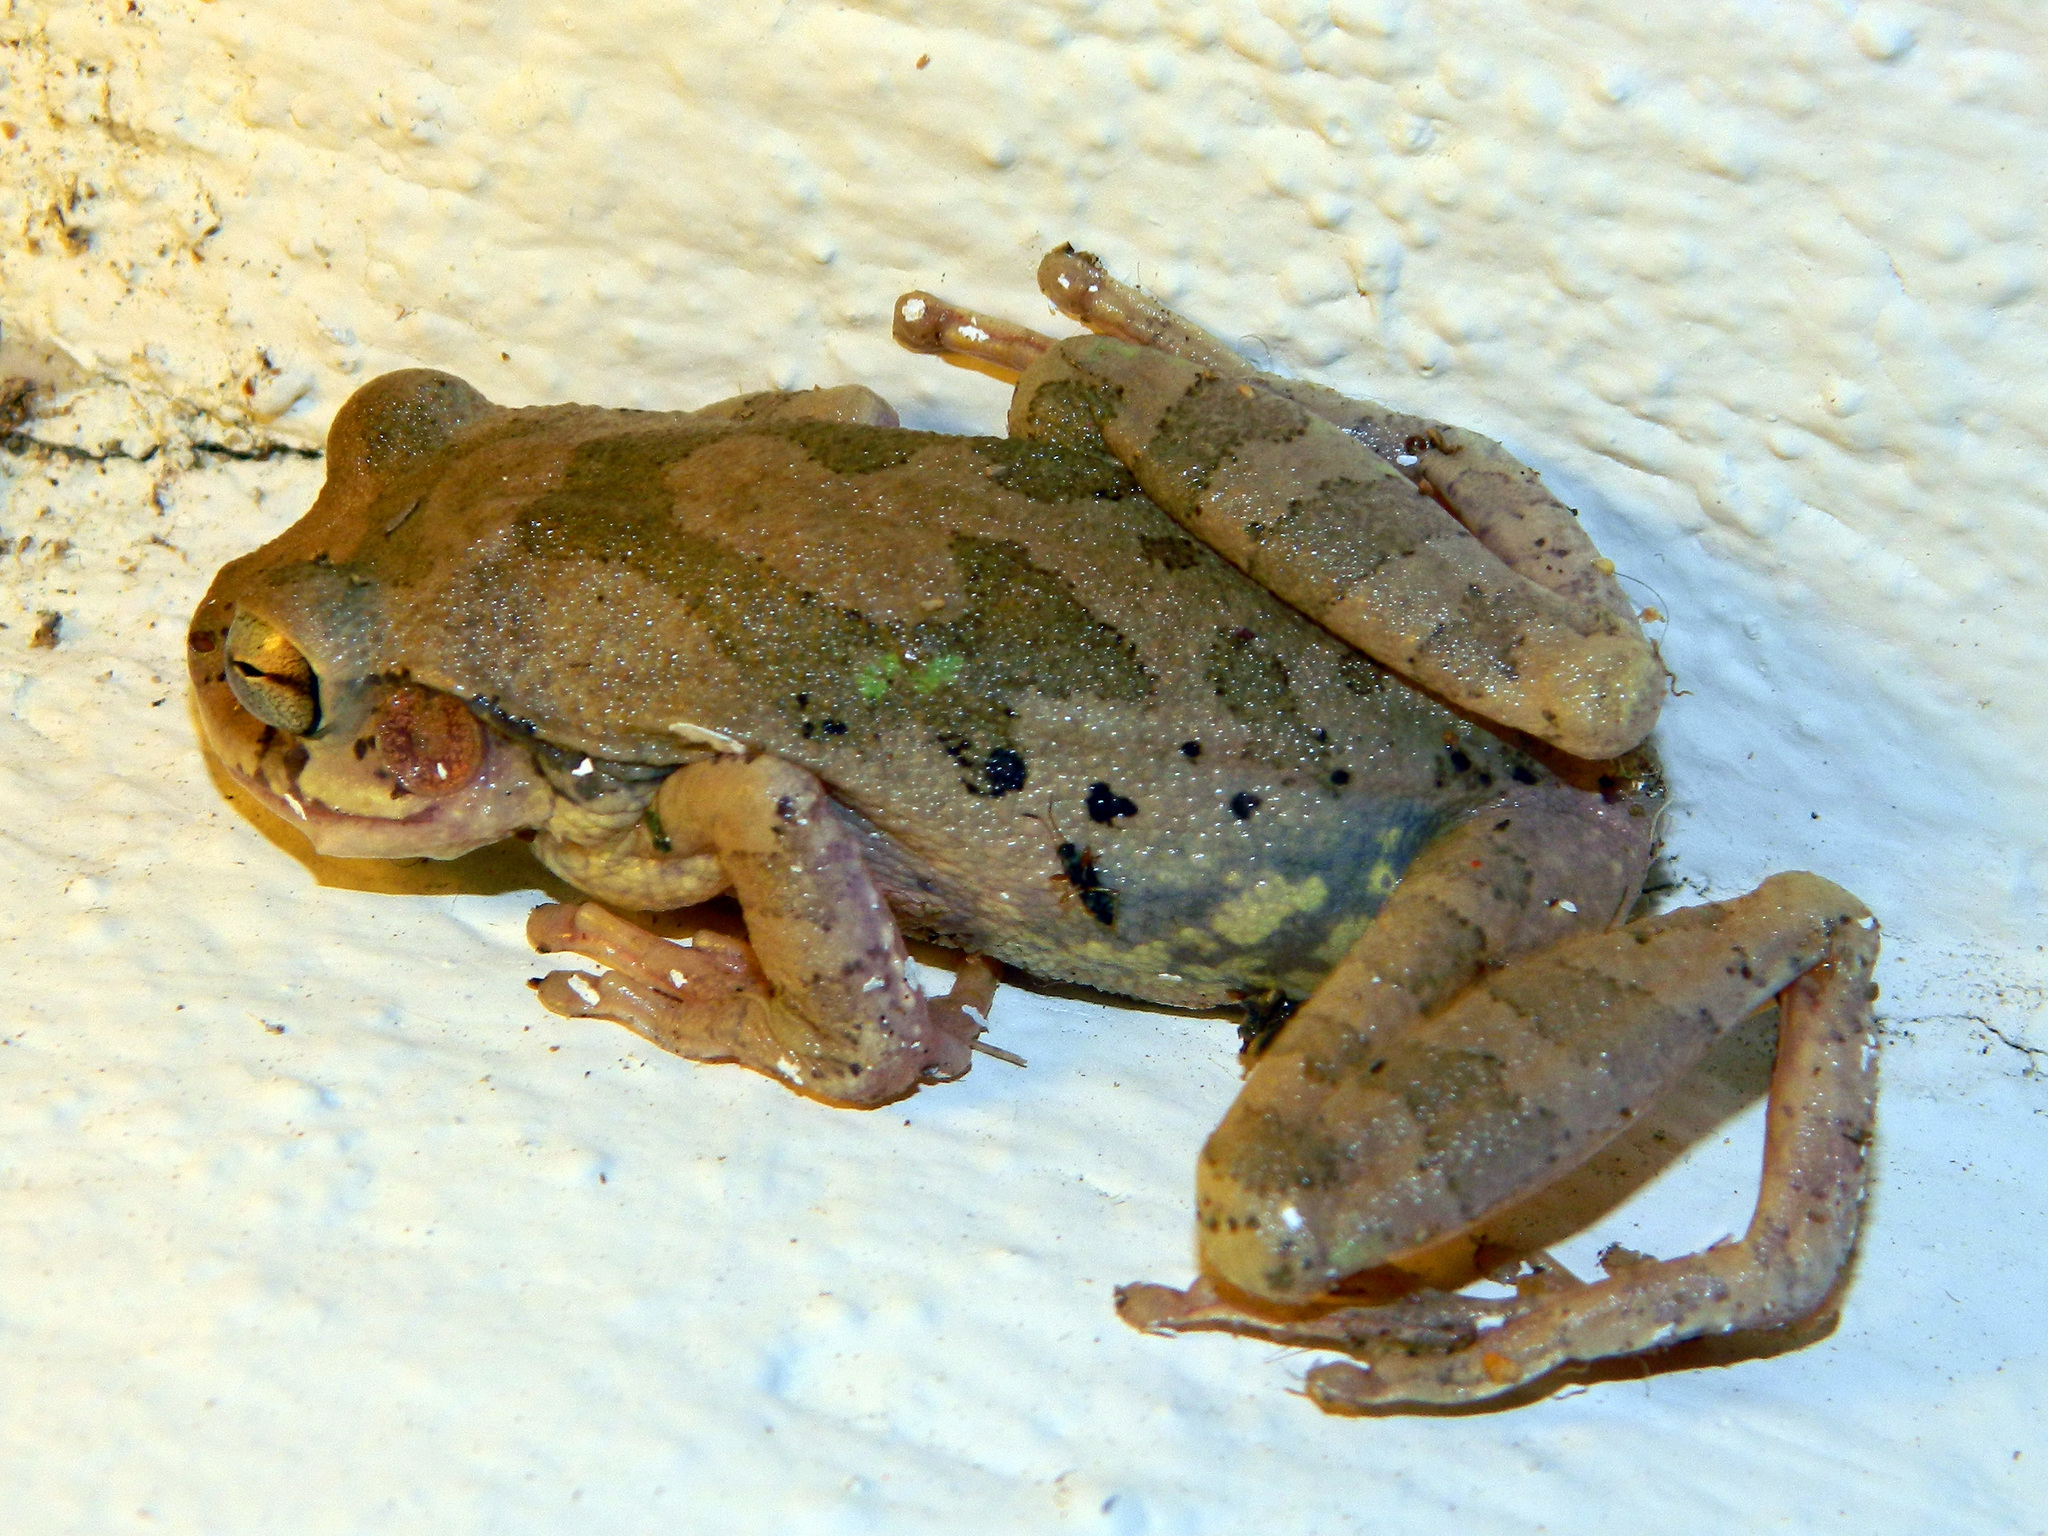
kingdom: Animalia
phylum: Chordata
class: Amphibia
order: Anura
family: Hylidae
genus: Smilisca
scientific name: Smilisca baudinii
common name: Mexican smilisca
